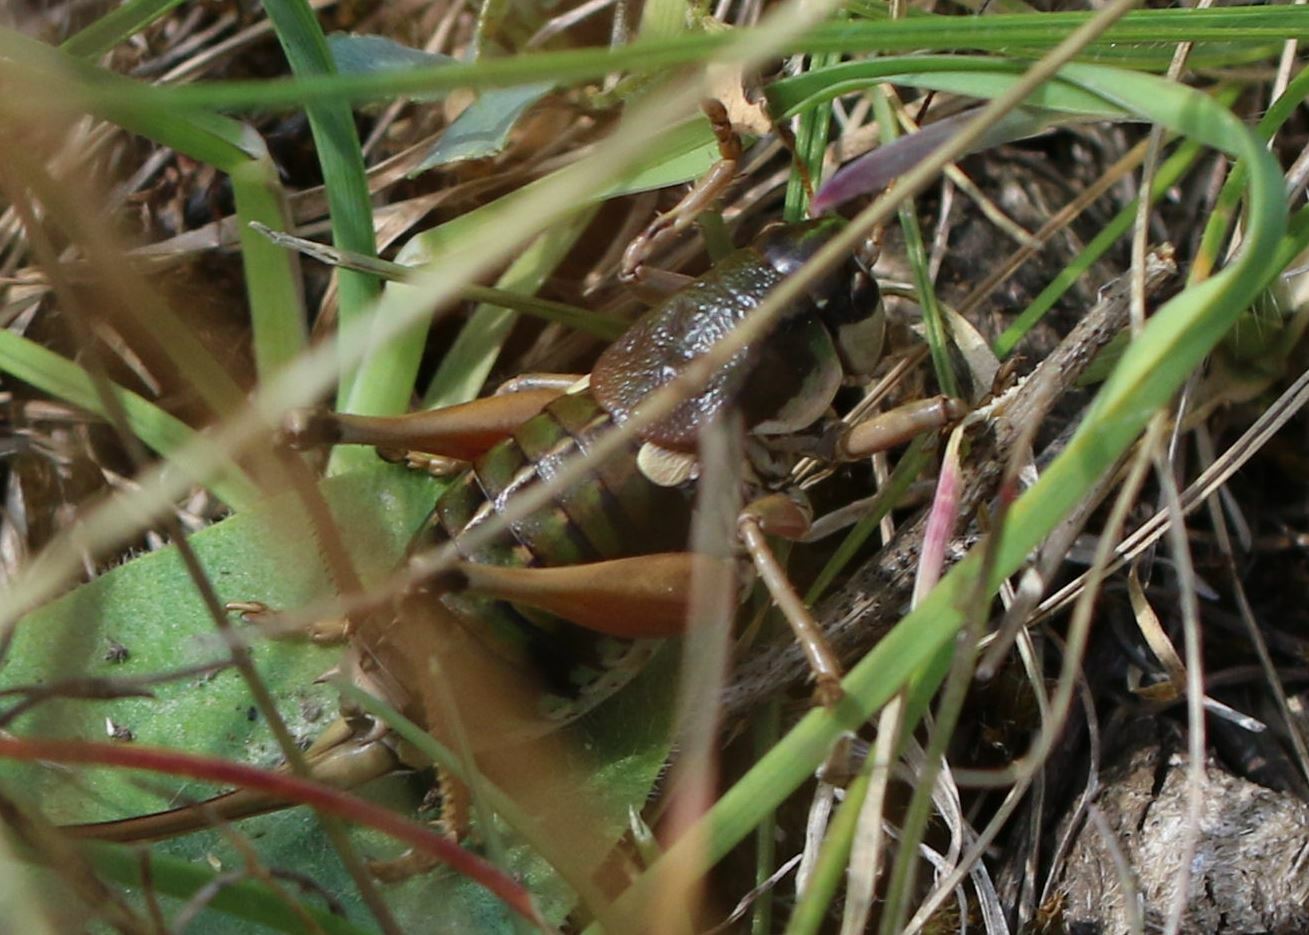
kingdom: Animalia
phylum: Arthropoda
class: Insecta
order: Orthoptera
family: Tettigoniidae
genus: Anonconotus
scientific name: Anonconotus ghilianii
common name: Ghiliani's alpine bush-cricket
